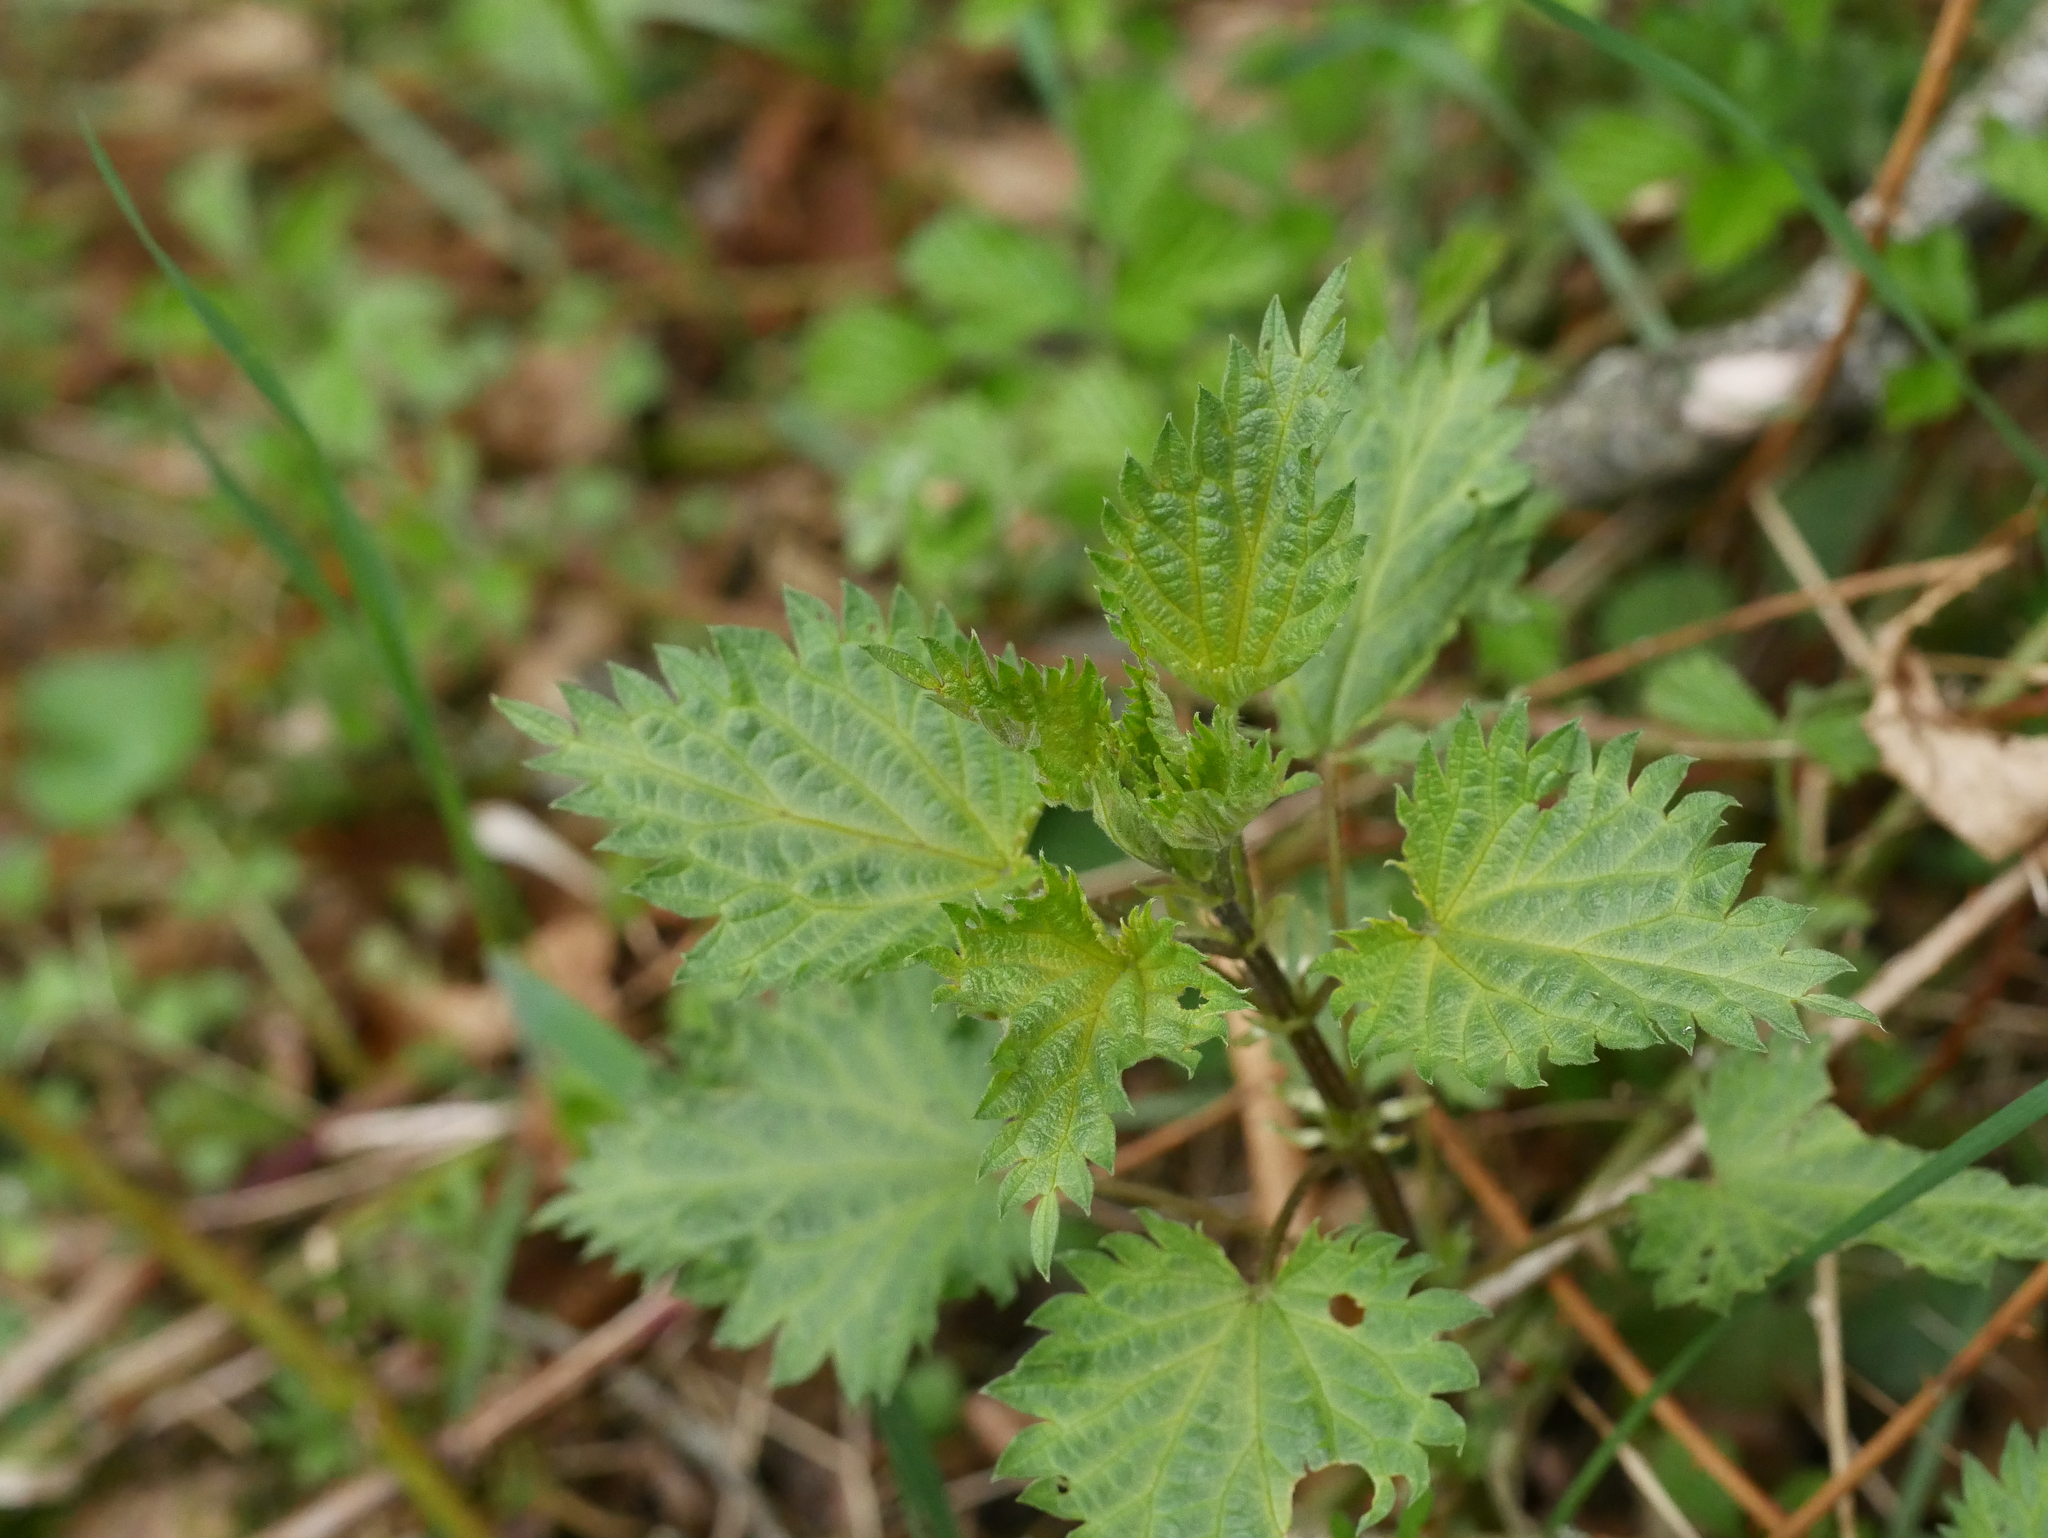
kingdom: Plantae
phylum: Tracheophyta
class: Magnoliopsida
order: Rosales
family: Urticaceae
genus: Urtica
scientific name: Urtica dioica
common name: Common nettle
